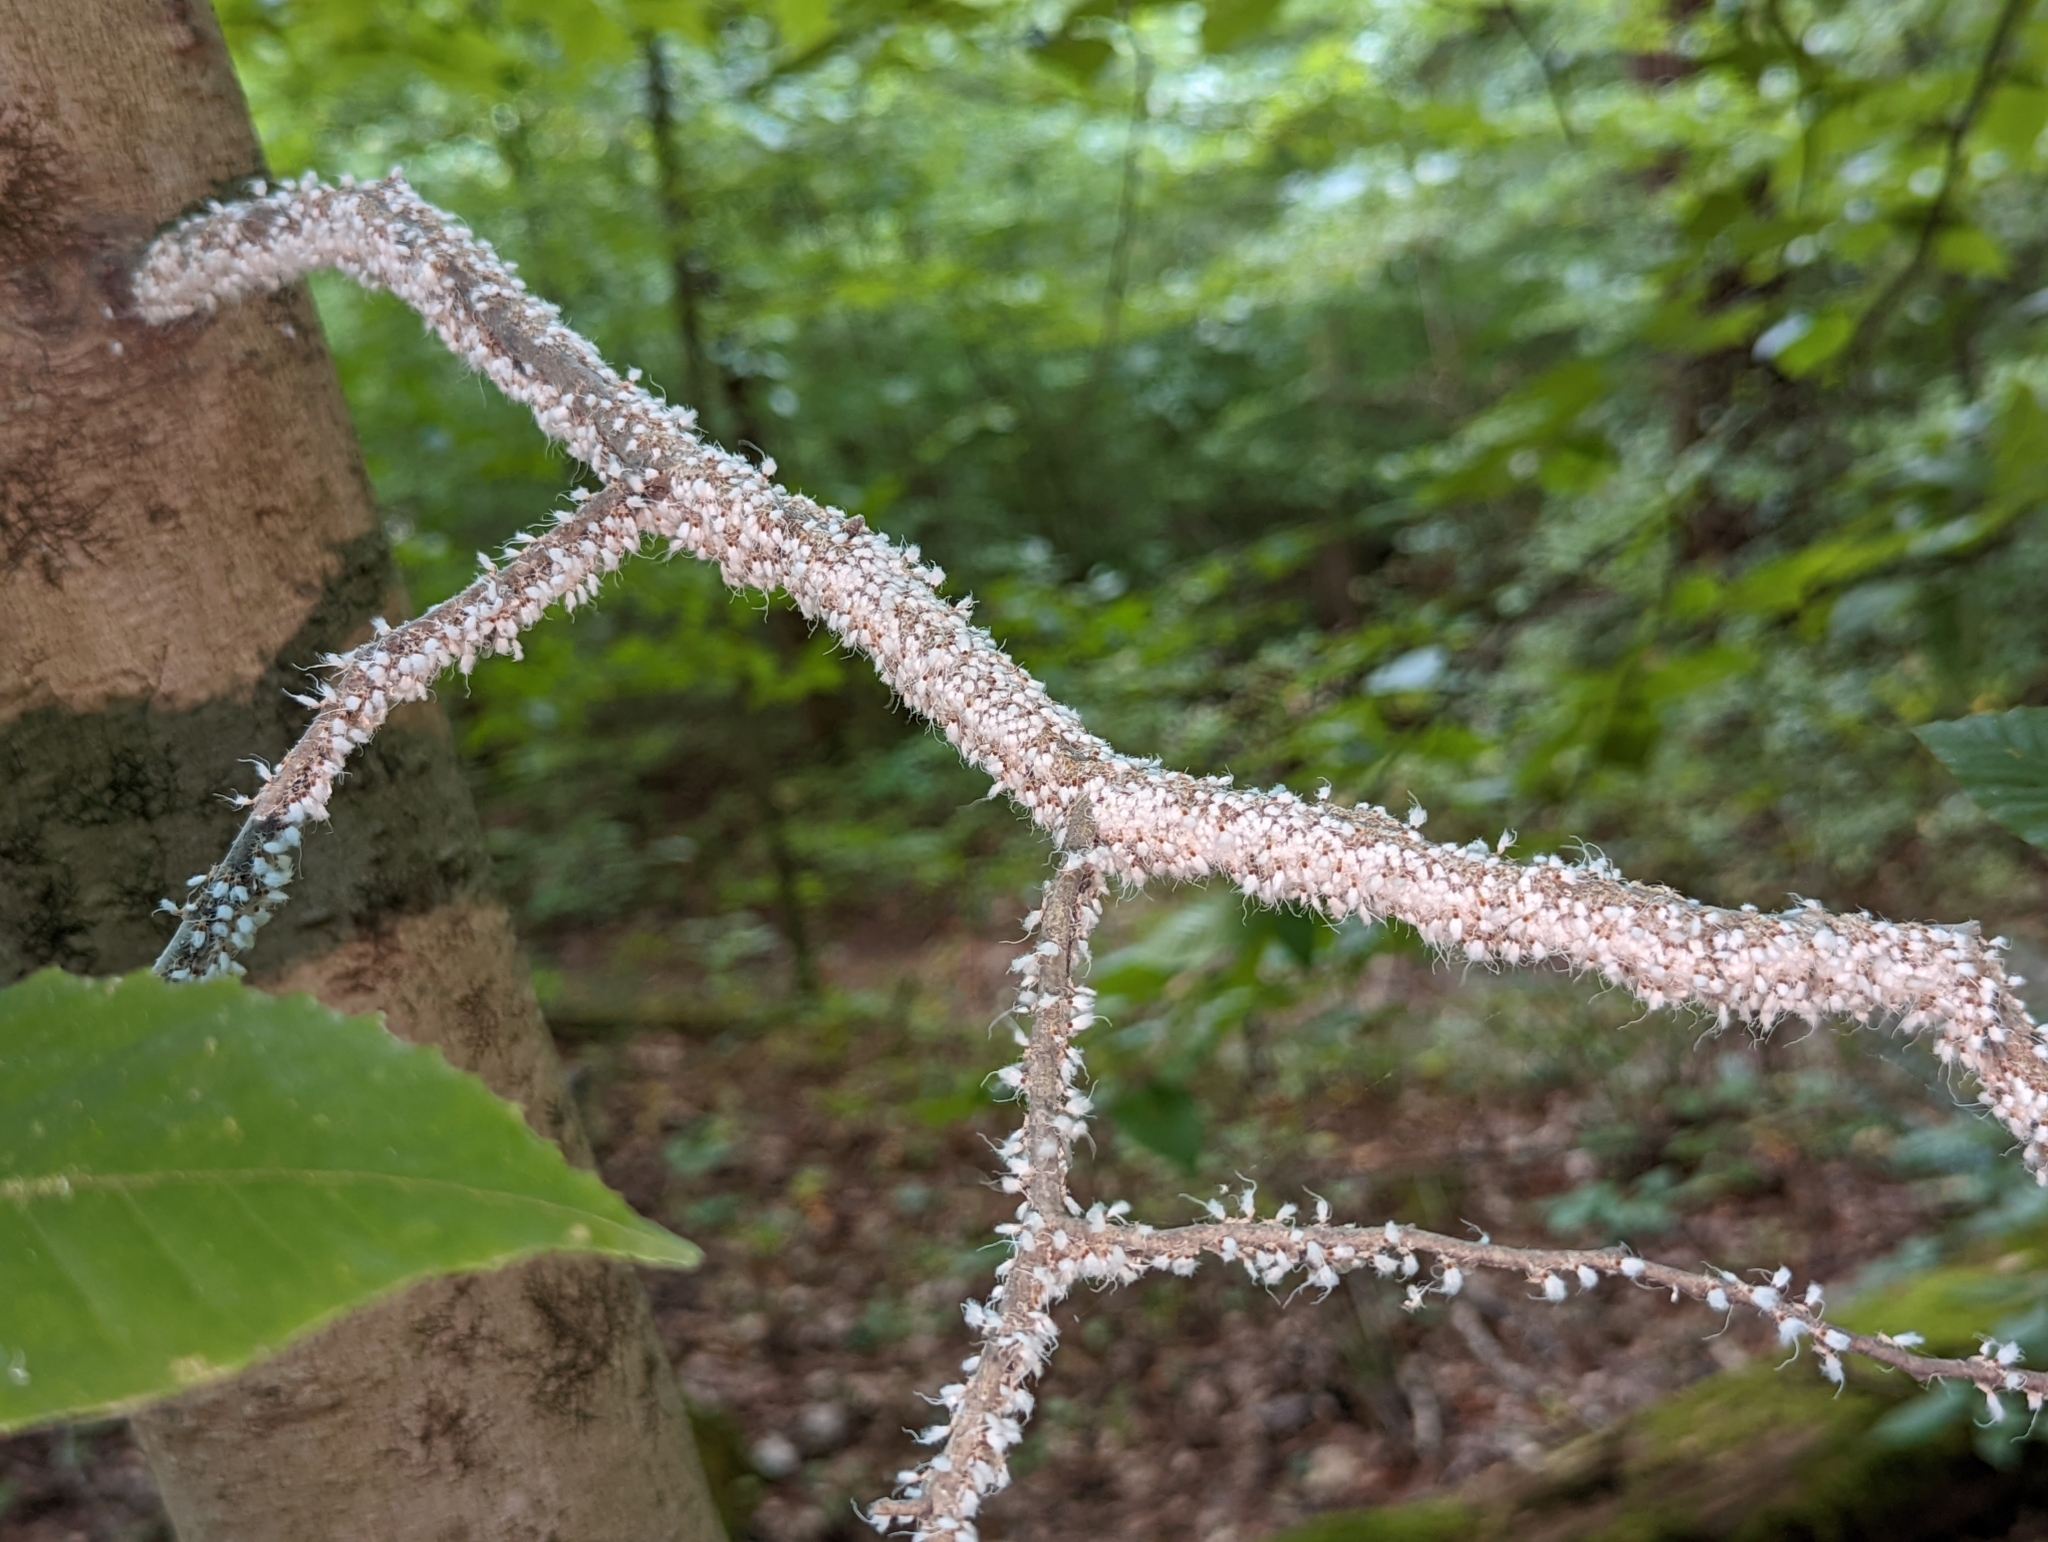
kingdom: Animalia
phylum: Arthropoda
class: Insecta
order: Hemiptera
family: Aphididae
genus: Grylloprociphilus
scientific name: Grylloprociphilus imbricator
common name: Beech blight aphid
